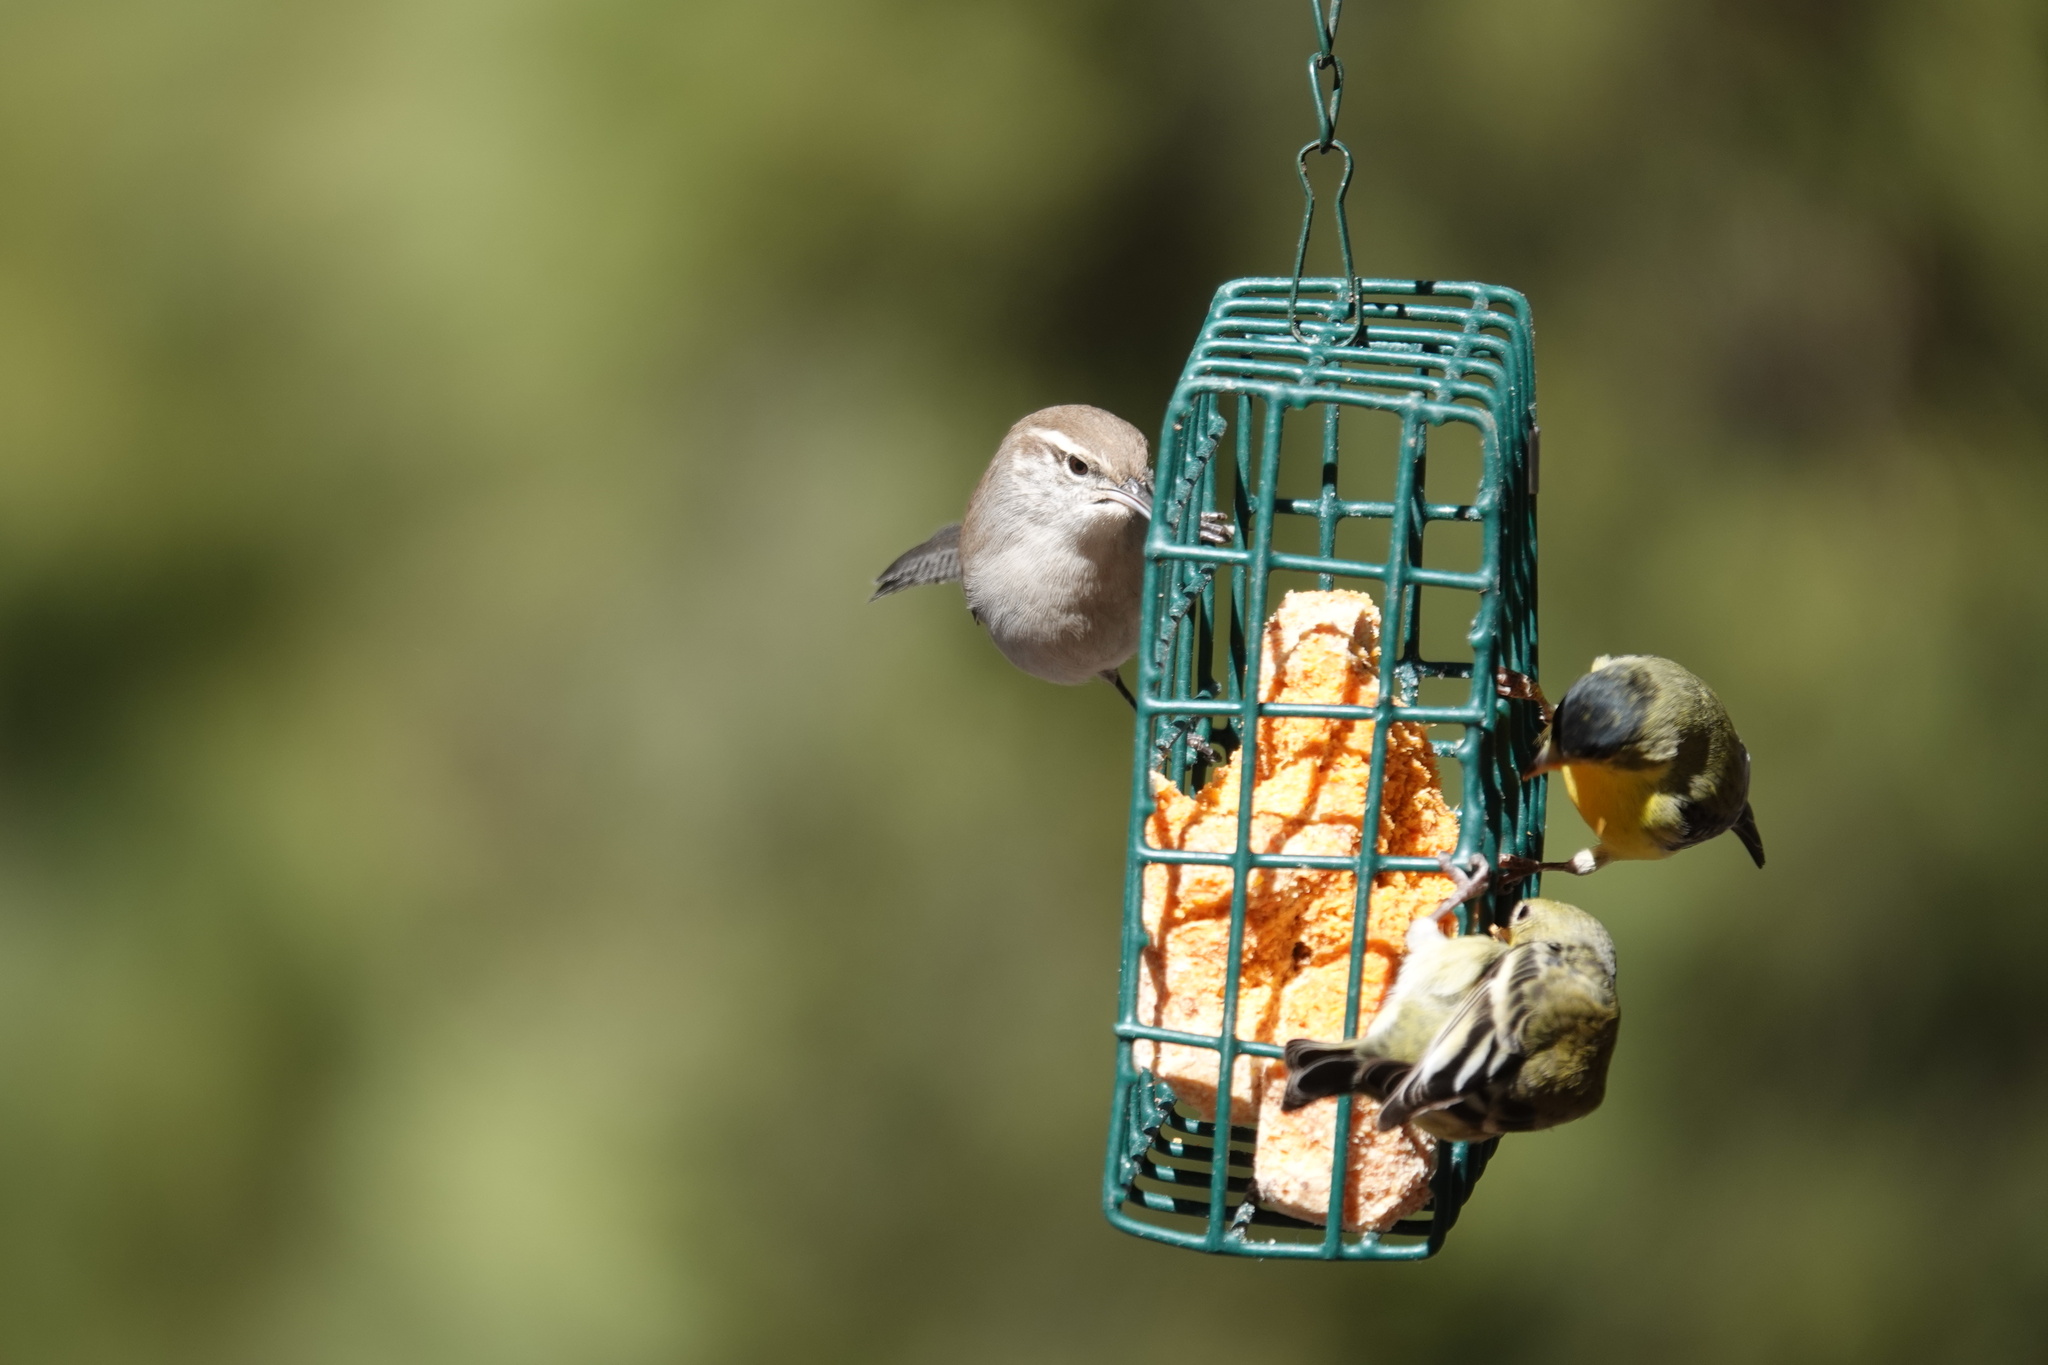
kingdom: Animalia
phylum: Chordata
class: Aves
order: Passeriformes
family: Troglodytidae
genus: Thryomanes
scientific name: Thryomanes bewickii
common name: Bewick's wren
